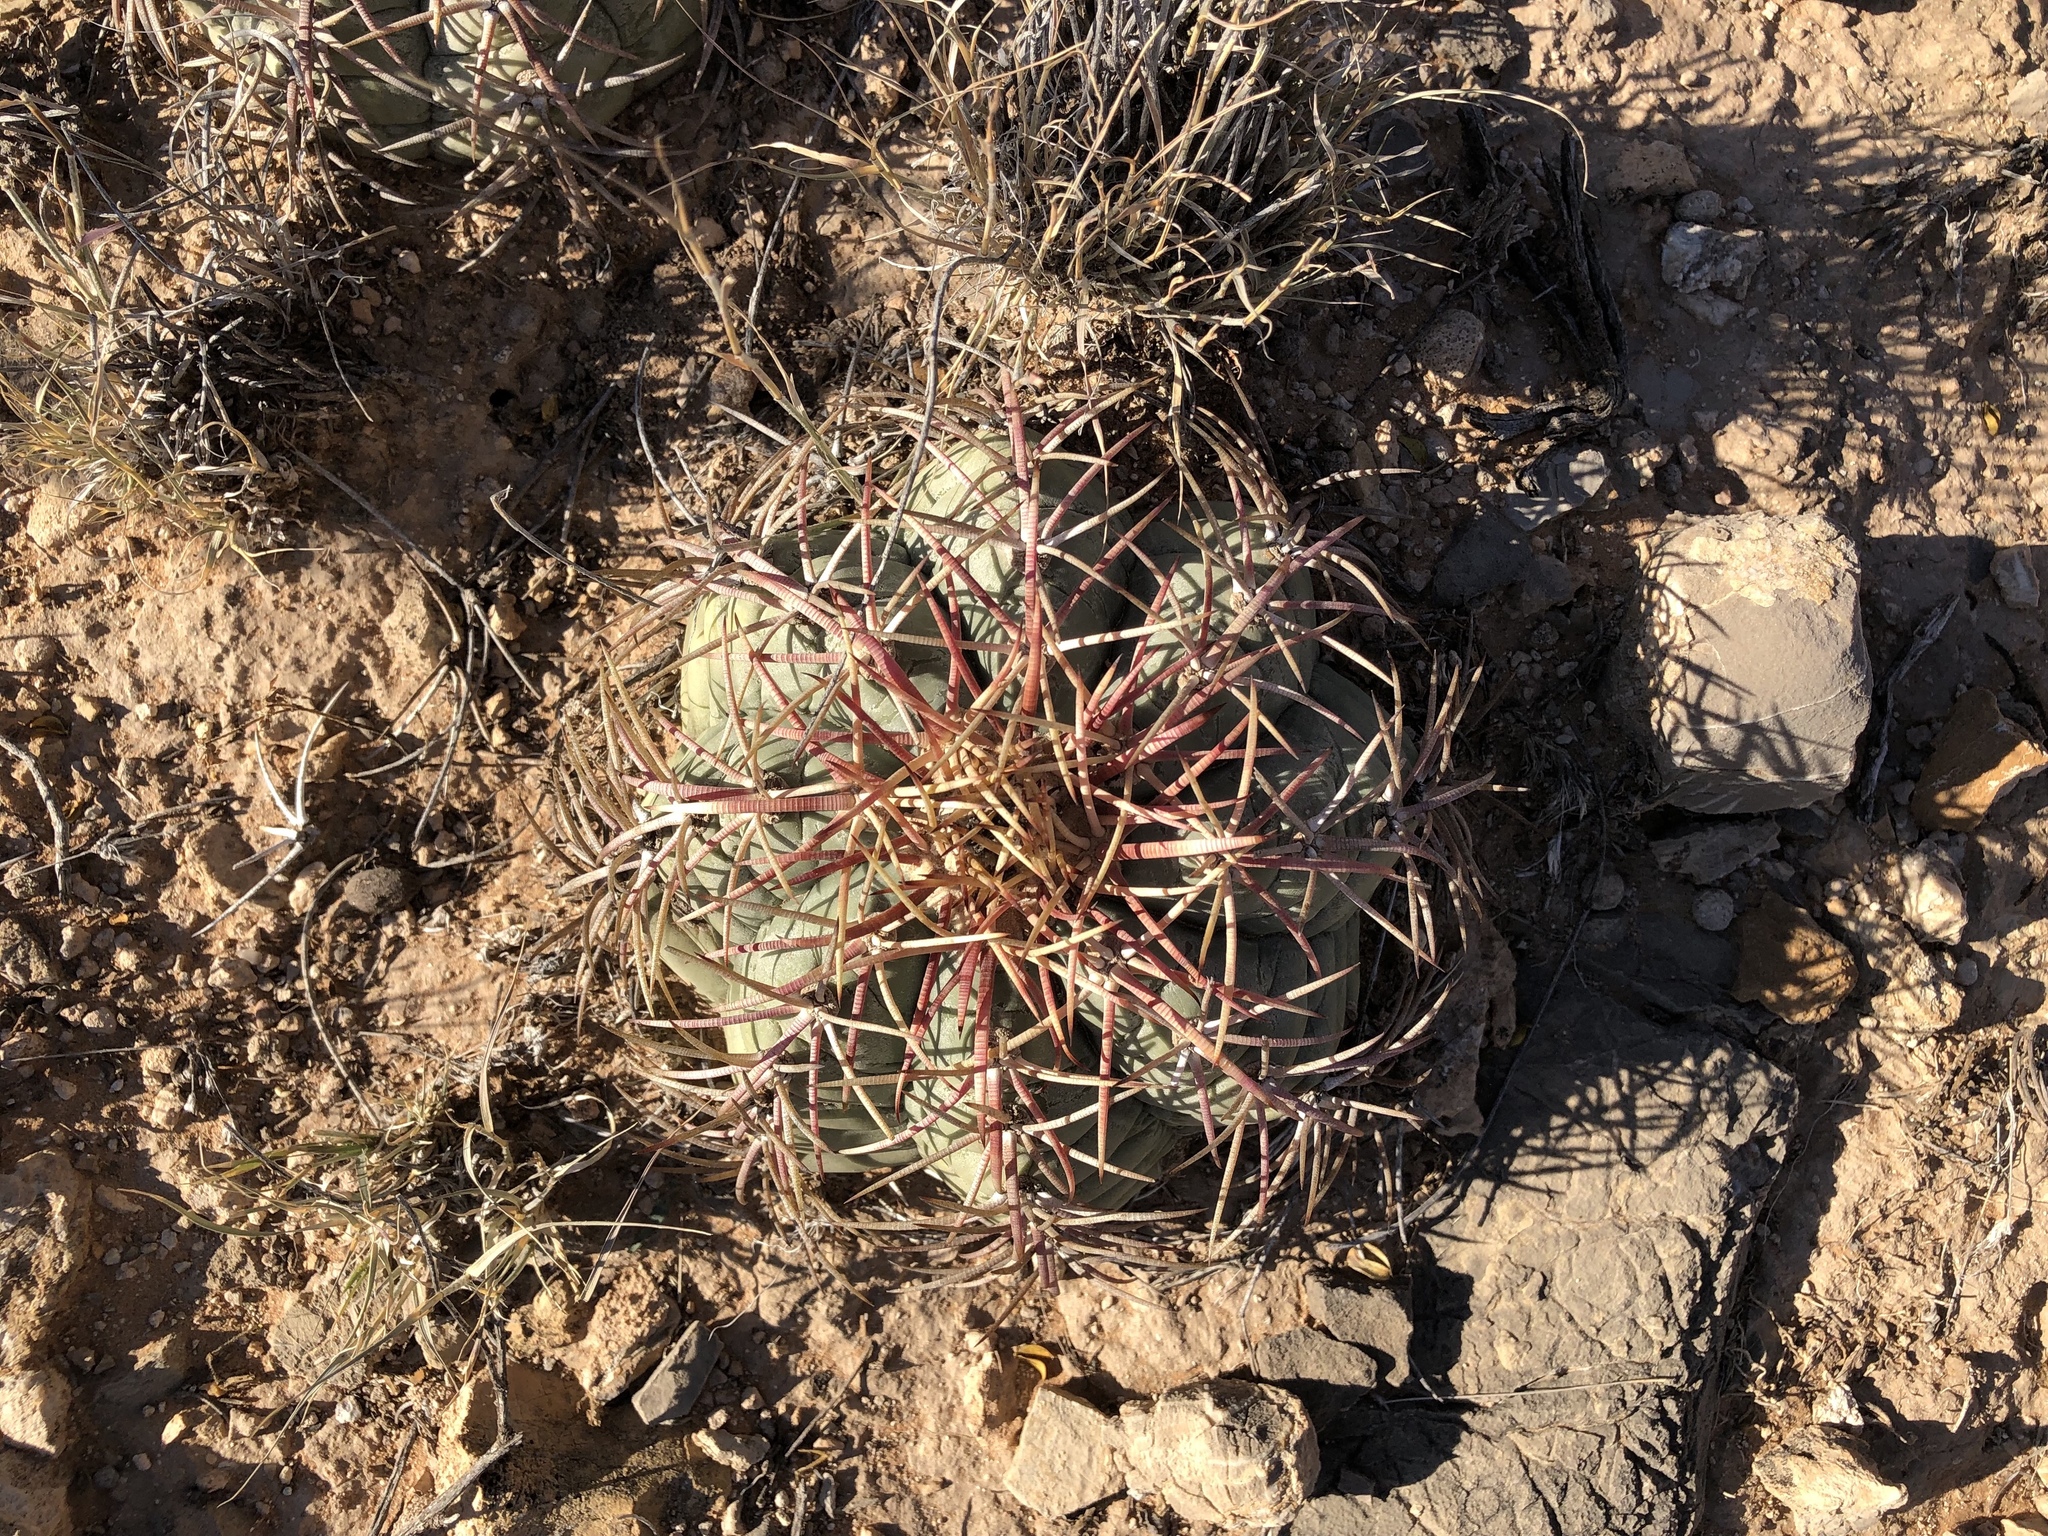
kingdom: Plantae
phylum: Tracheophyta
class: Magnoliopsida
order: Caryophyllales
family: Cactaceae
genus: Echinocactus
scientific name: Echinocactus horizonthalonius
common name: Devilshead
